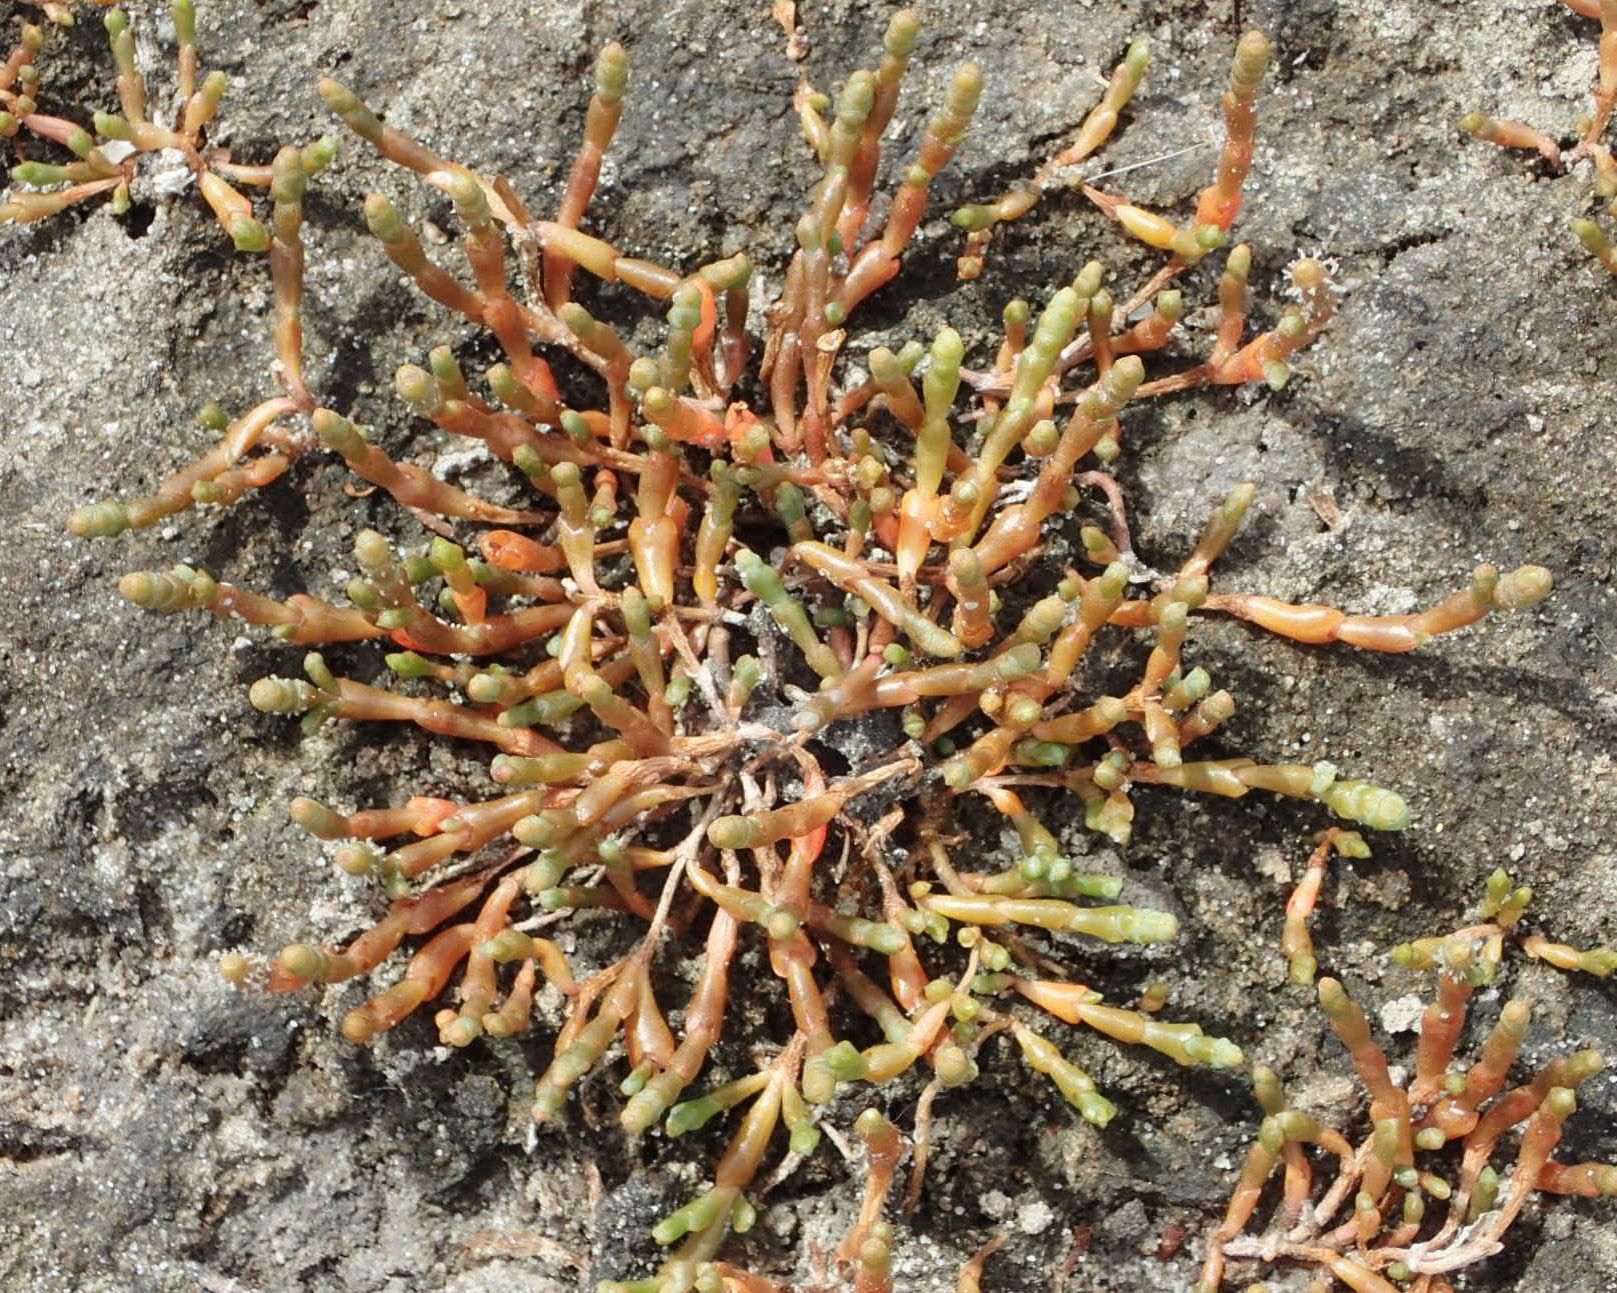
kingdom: Plantae
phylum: Tracheophyta
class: Magnoliopsida
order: Caryophyllales
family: Amaranthaceae
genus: Salicornia
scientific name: Salicornia quinqueflora
